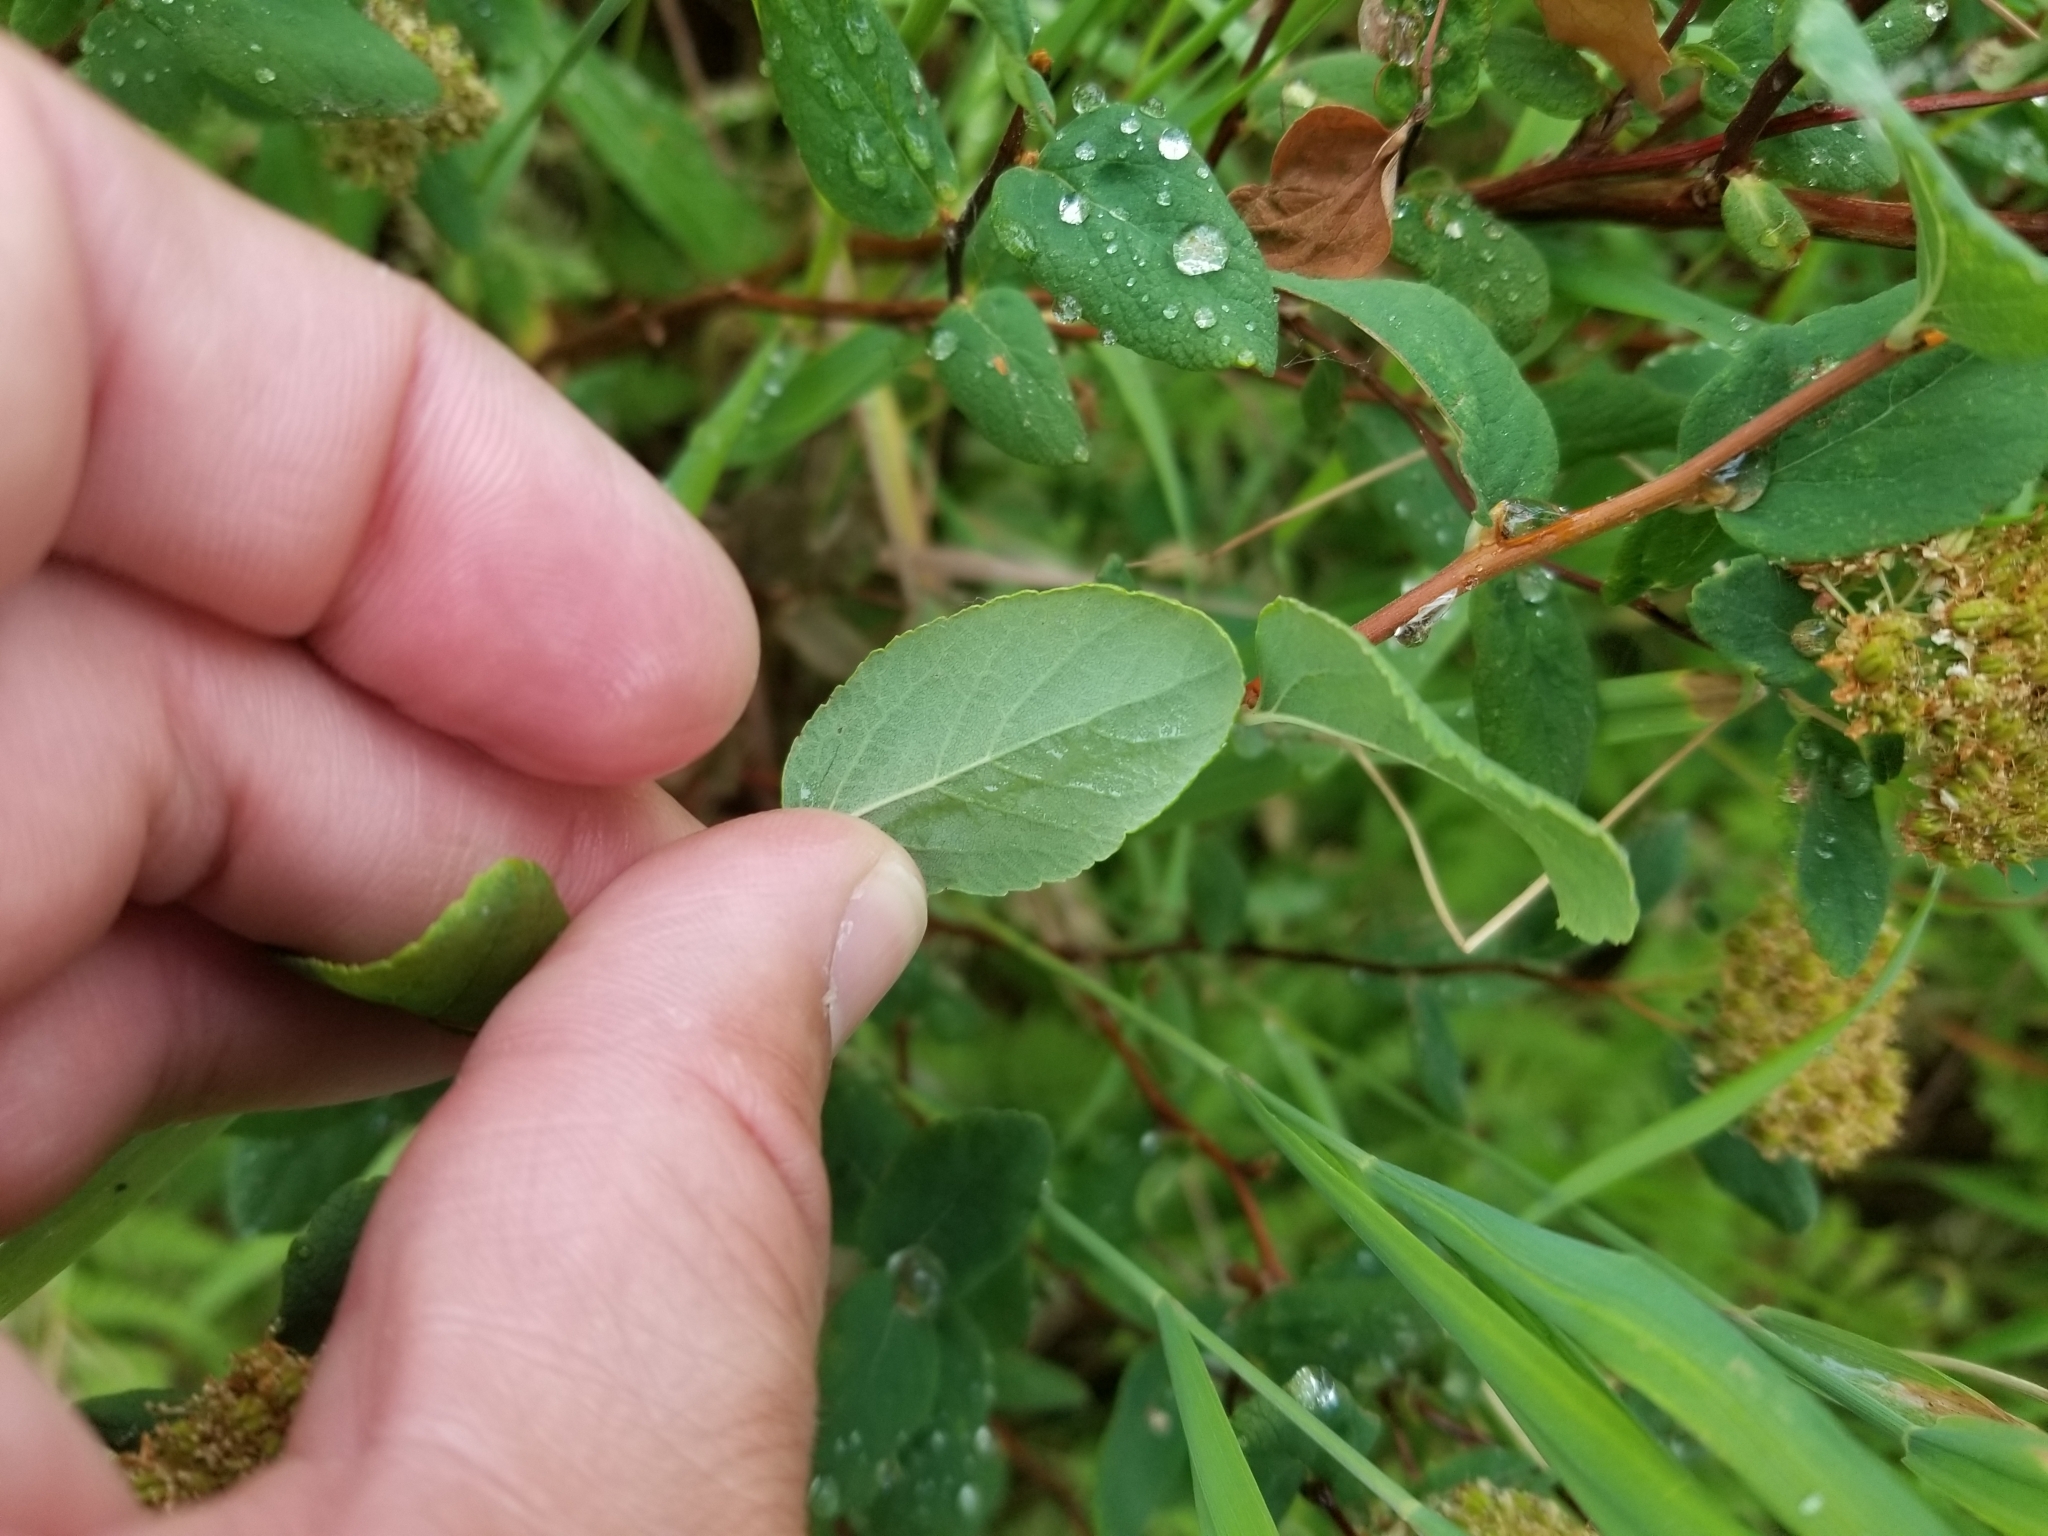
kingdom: Plantae
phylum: Tracheophyta
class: Magnoliopsida
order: Rosales
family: Rosaceae
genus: Spiraea
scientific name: Spiraea stevenii
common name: Steven's meadowsweet
